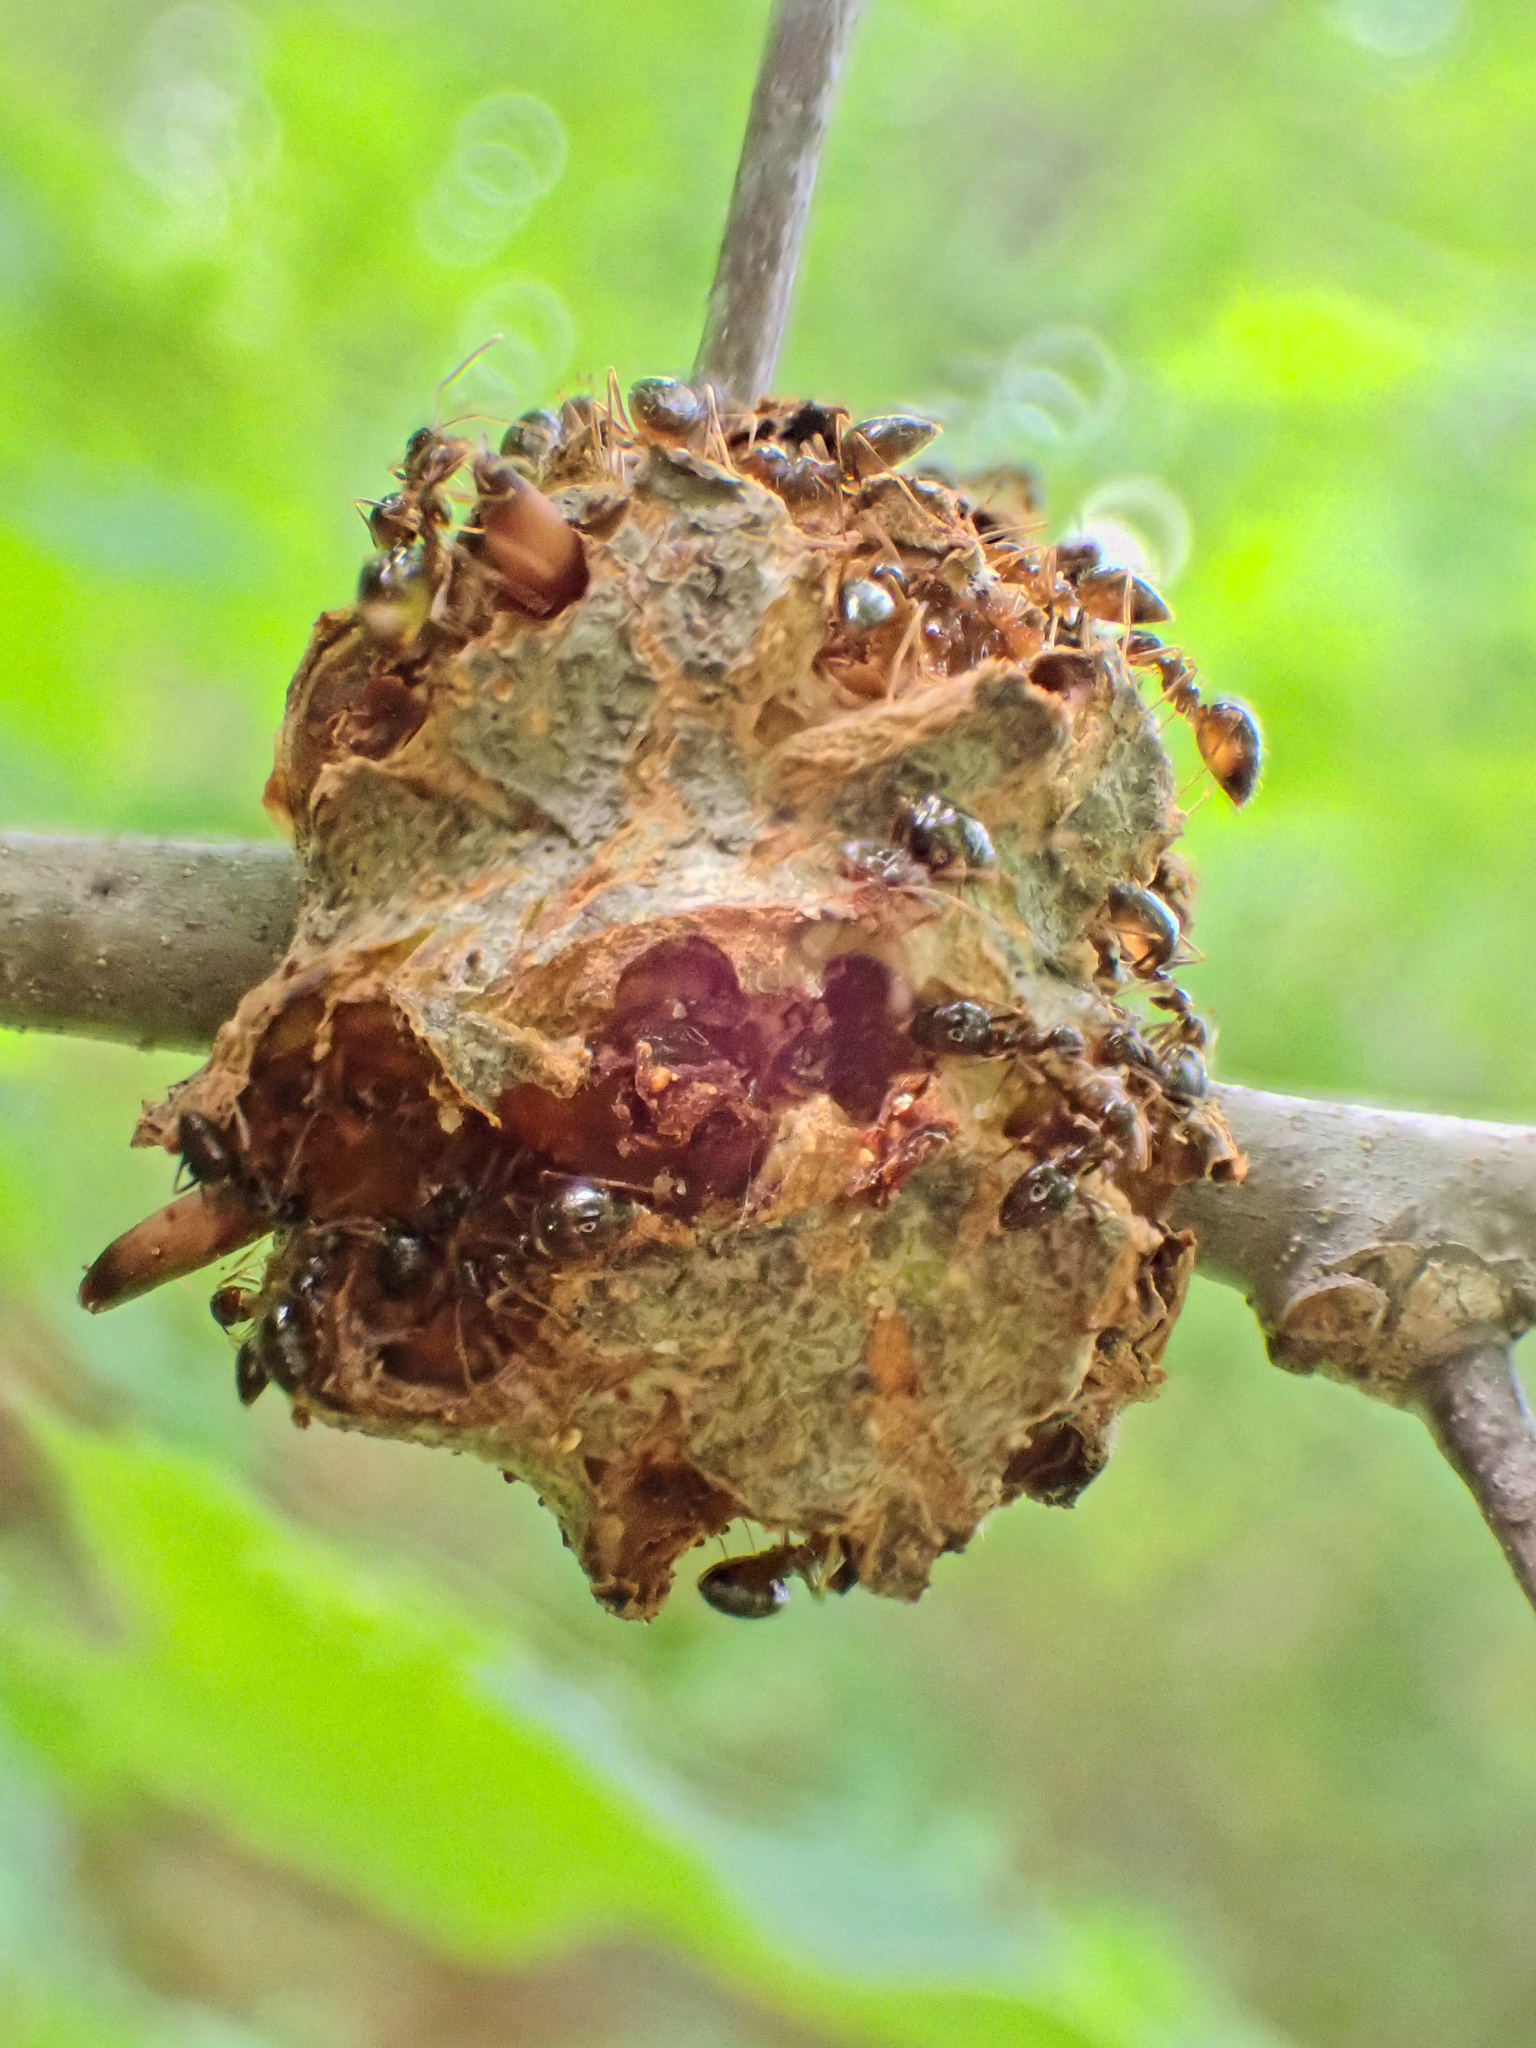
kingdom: Animalia
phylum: Arthropoda
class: Insecta
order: Hymenoptera
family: Cynipidae
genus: Callirhytis
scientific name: Callirhytis
